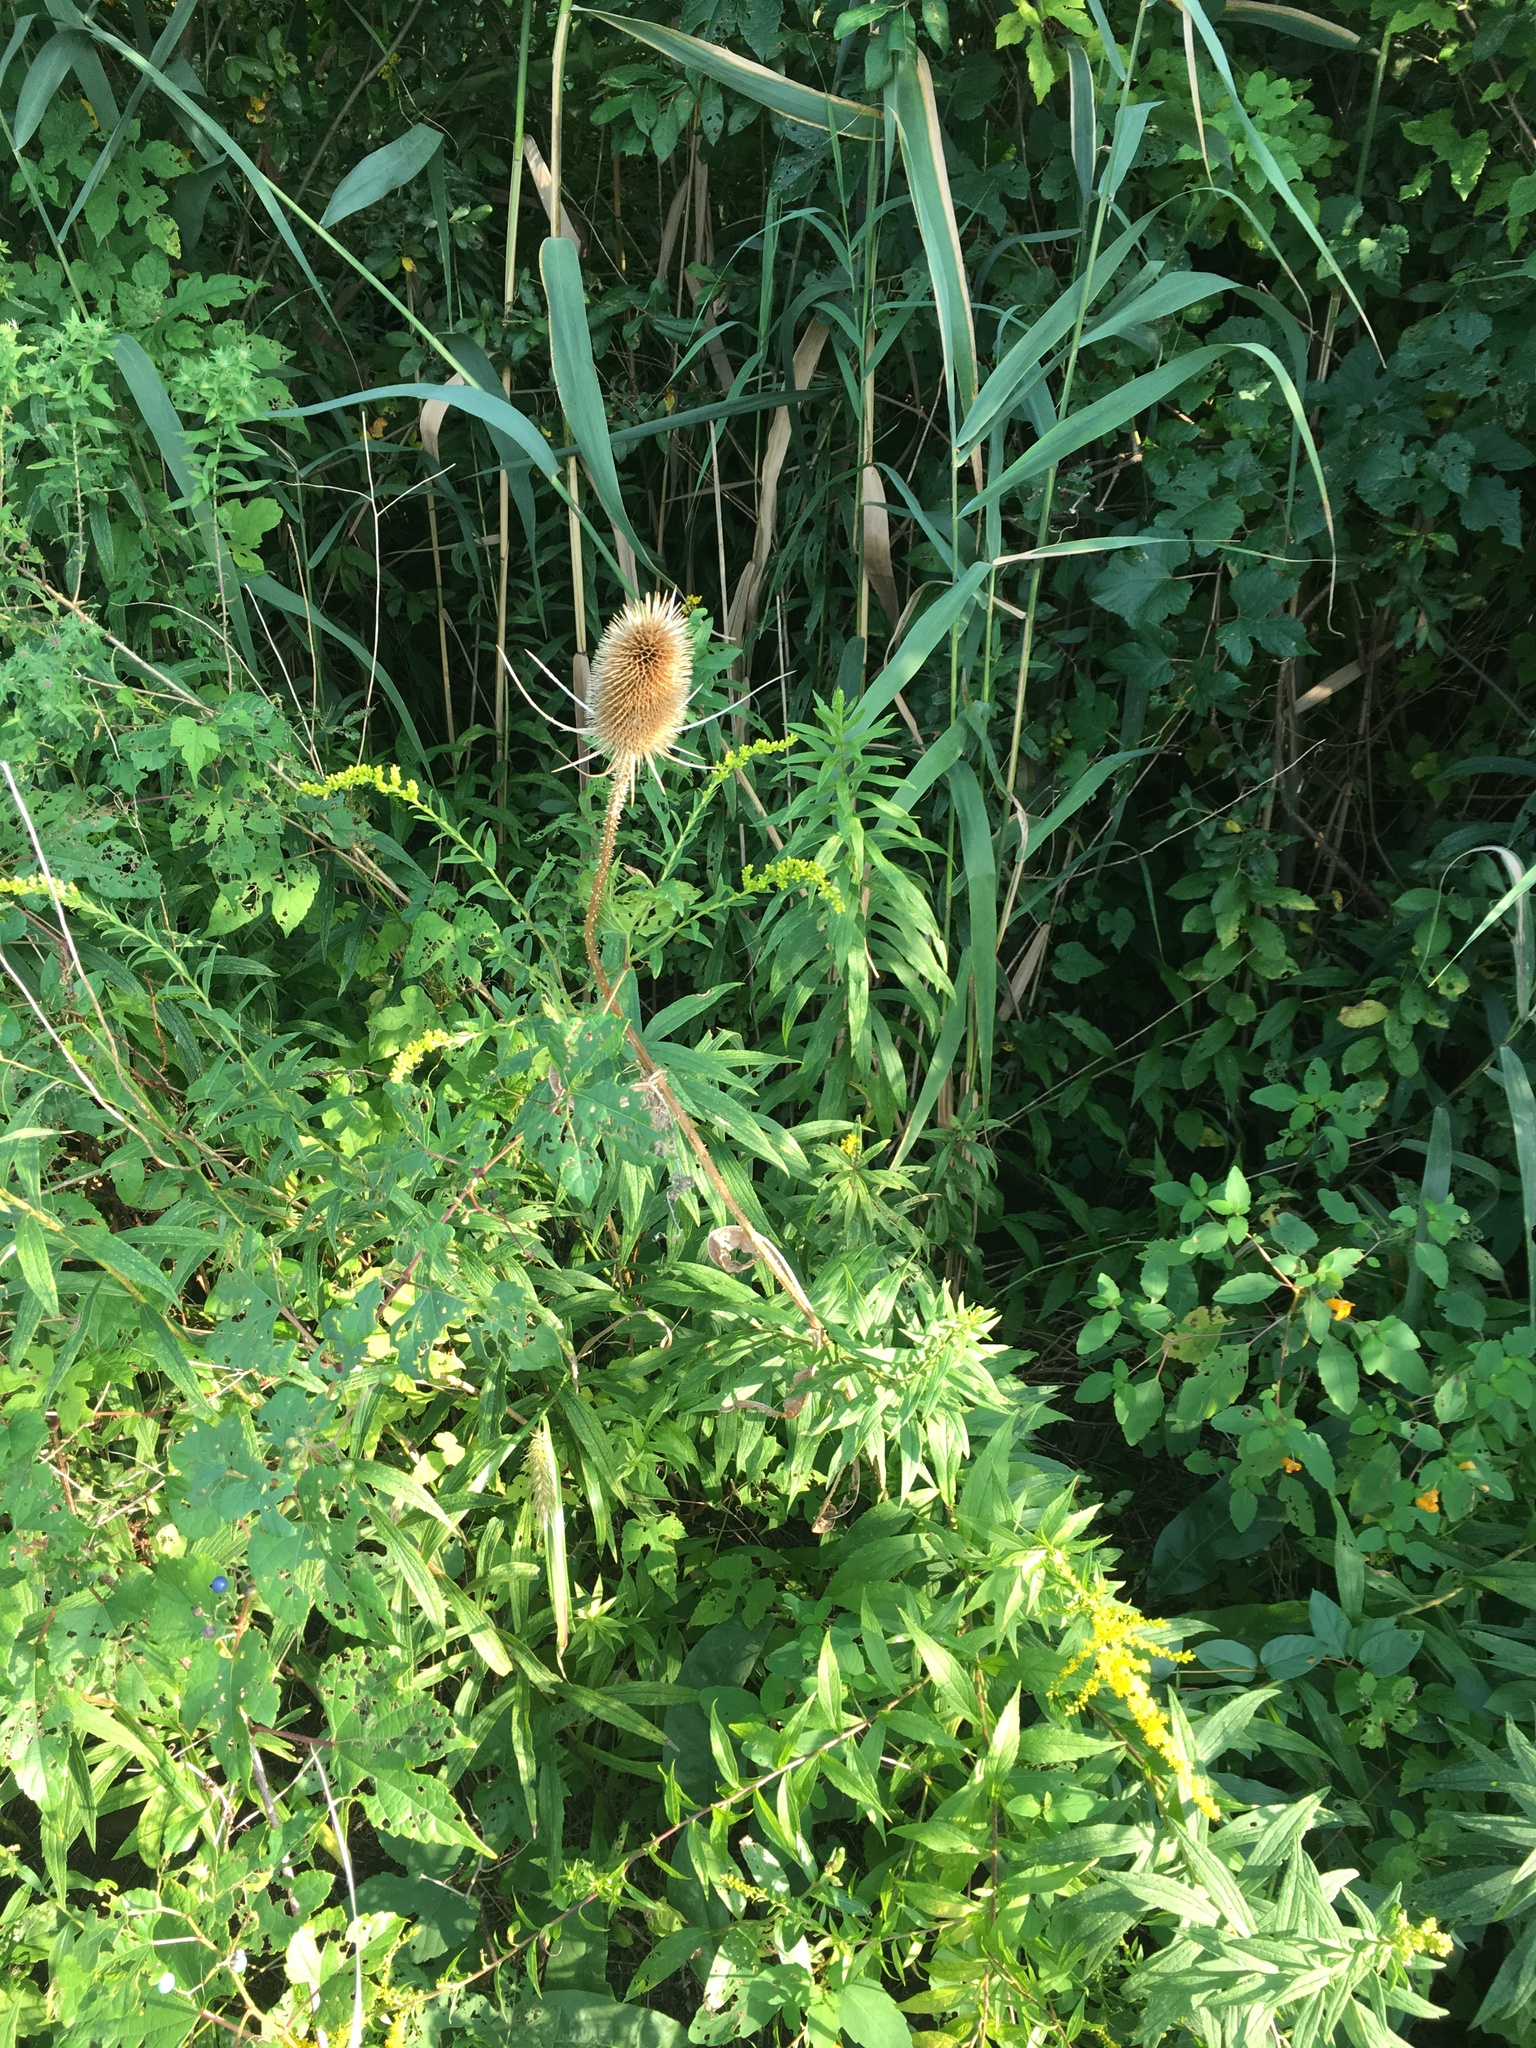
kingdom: Plantae
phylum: Tracheophyta
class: Magnoliopsida
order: Dipsacales
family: Caprifoliaceae
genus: Dipsacus
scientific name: Dipsacus fullonum
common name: Teasel
